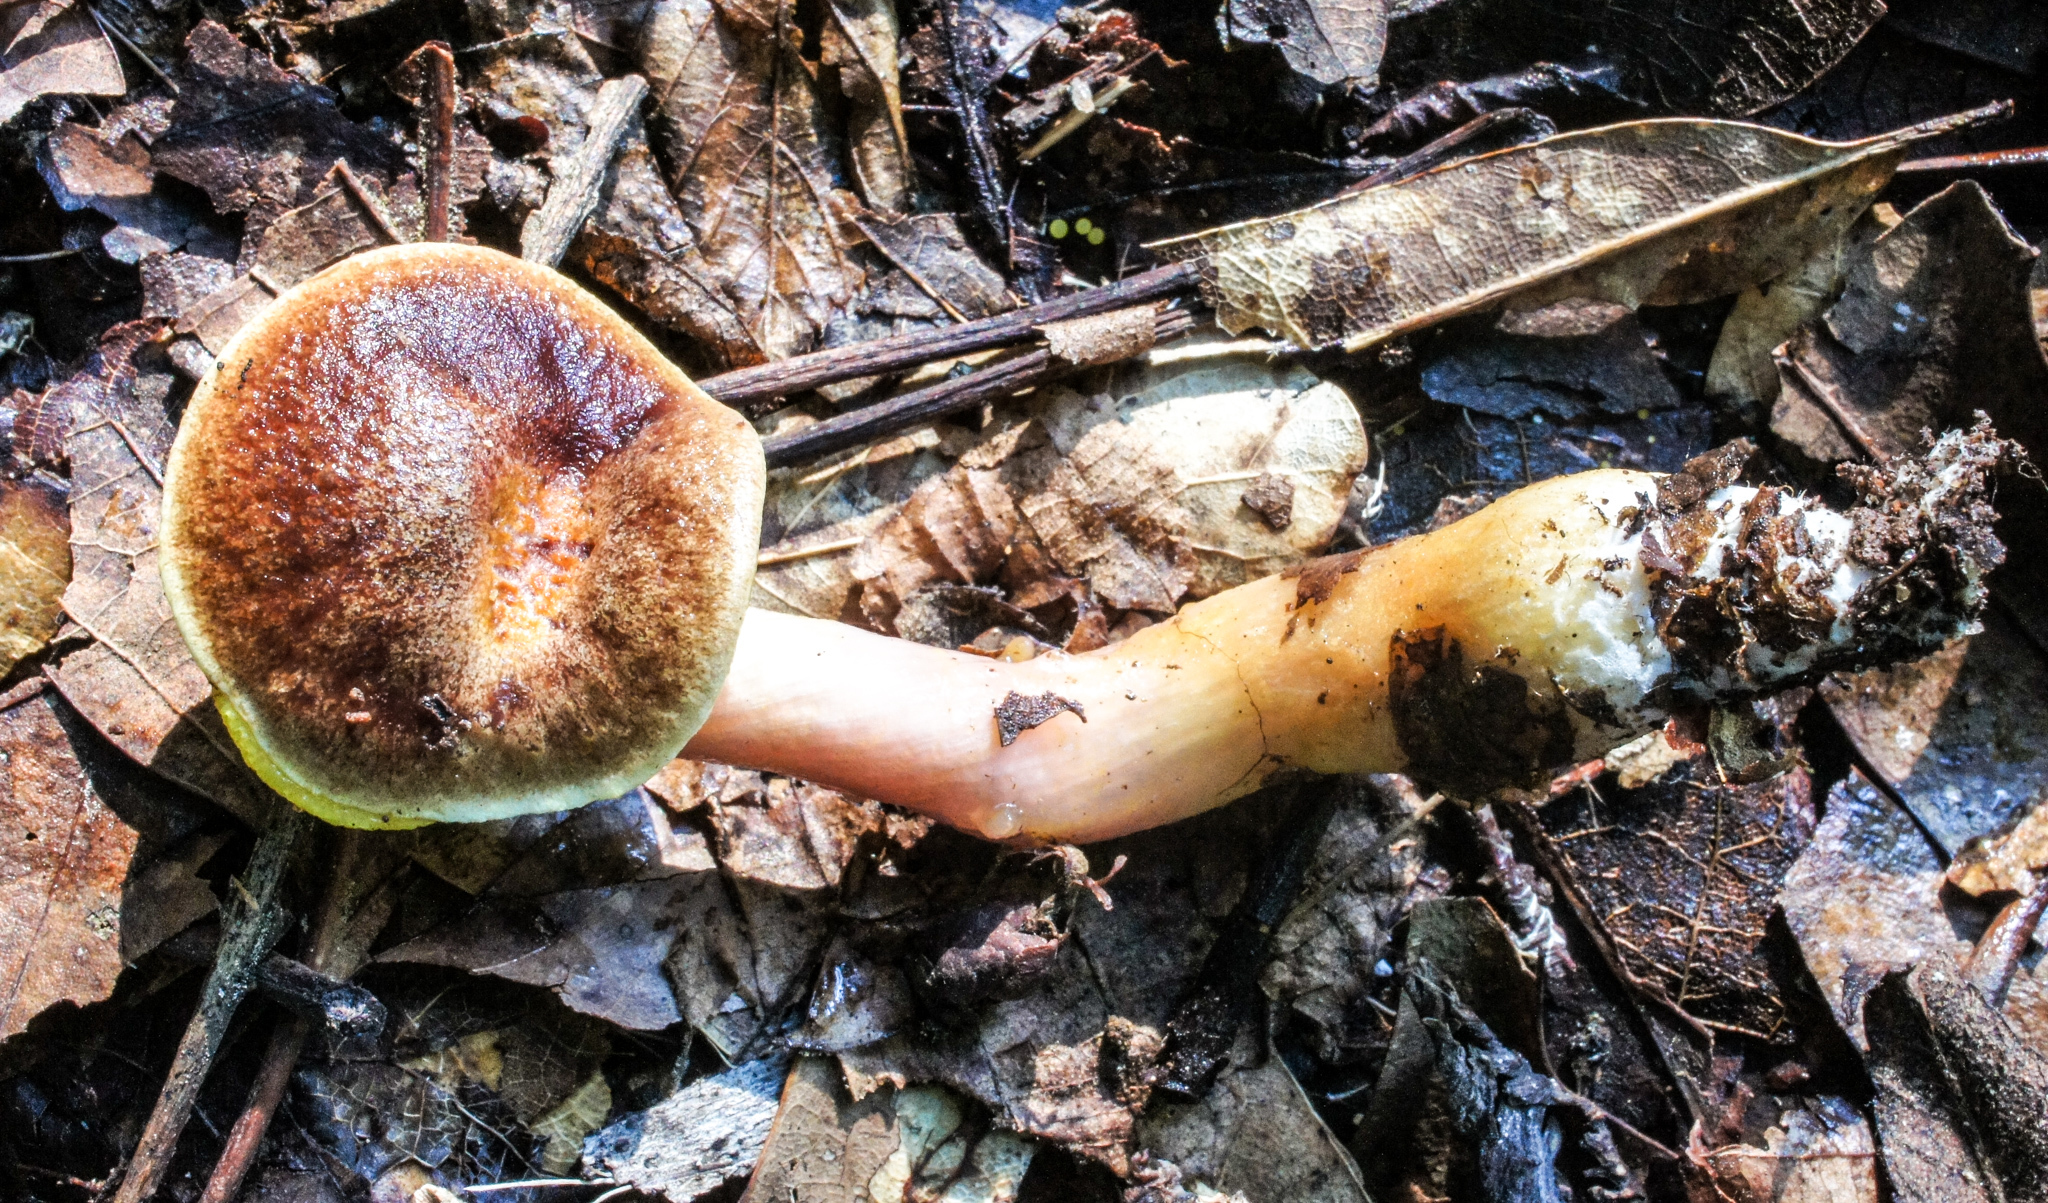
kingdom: Fungi
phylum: Basidiomycota
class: Agaricomycetes
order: Boletales
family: Boletaceae
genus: Aureoboletus
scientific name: Aureoboletus auriporus
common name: Sour gold-pored bolete
